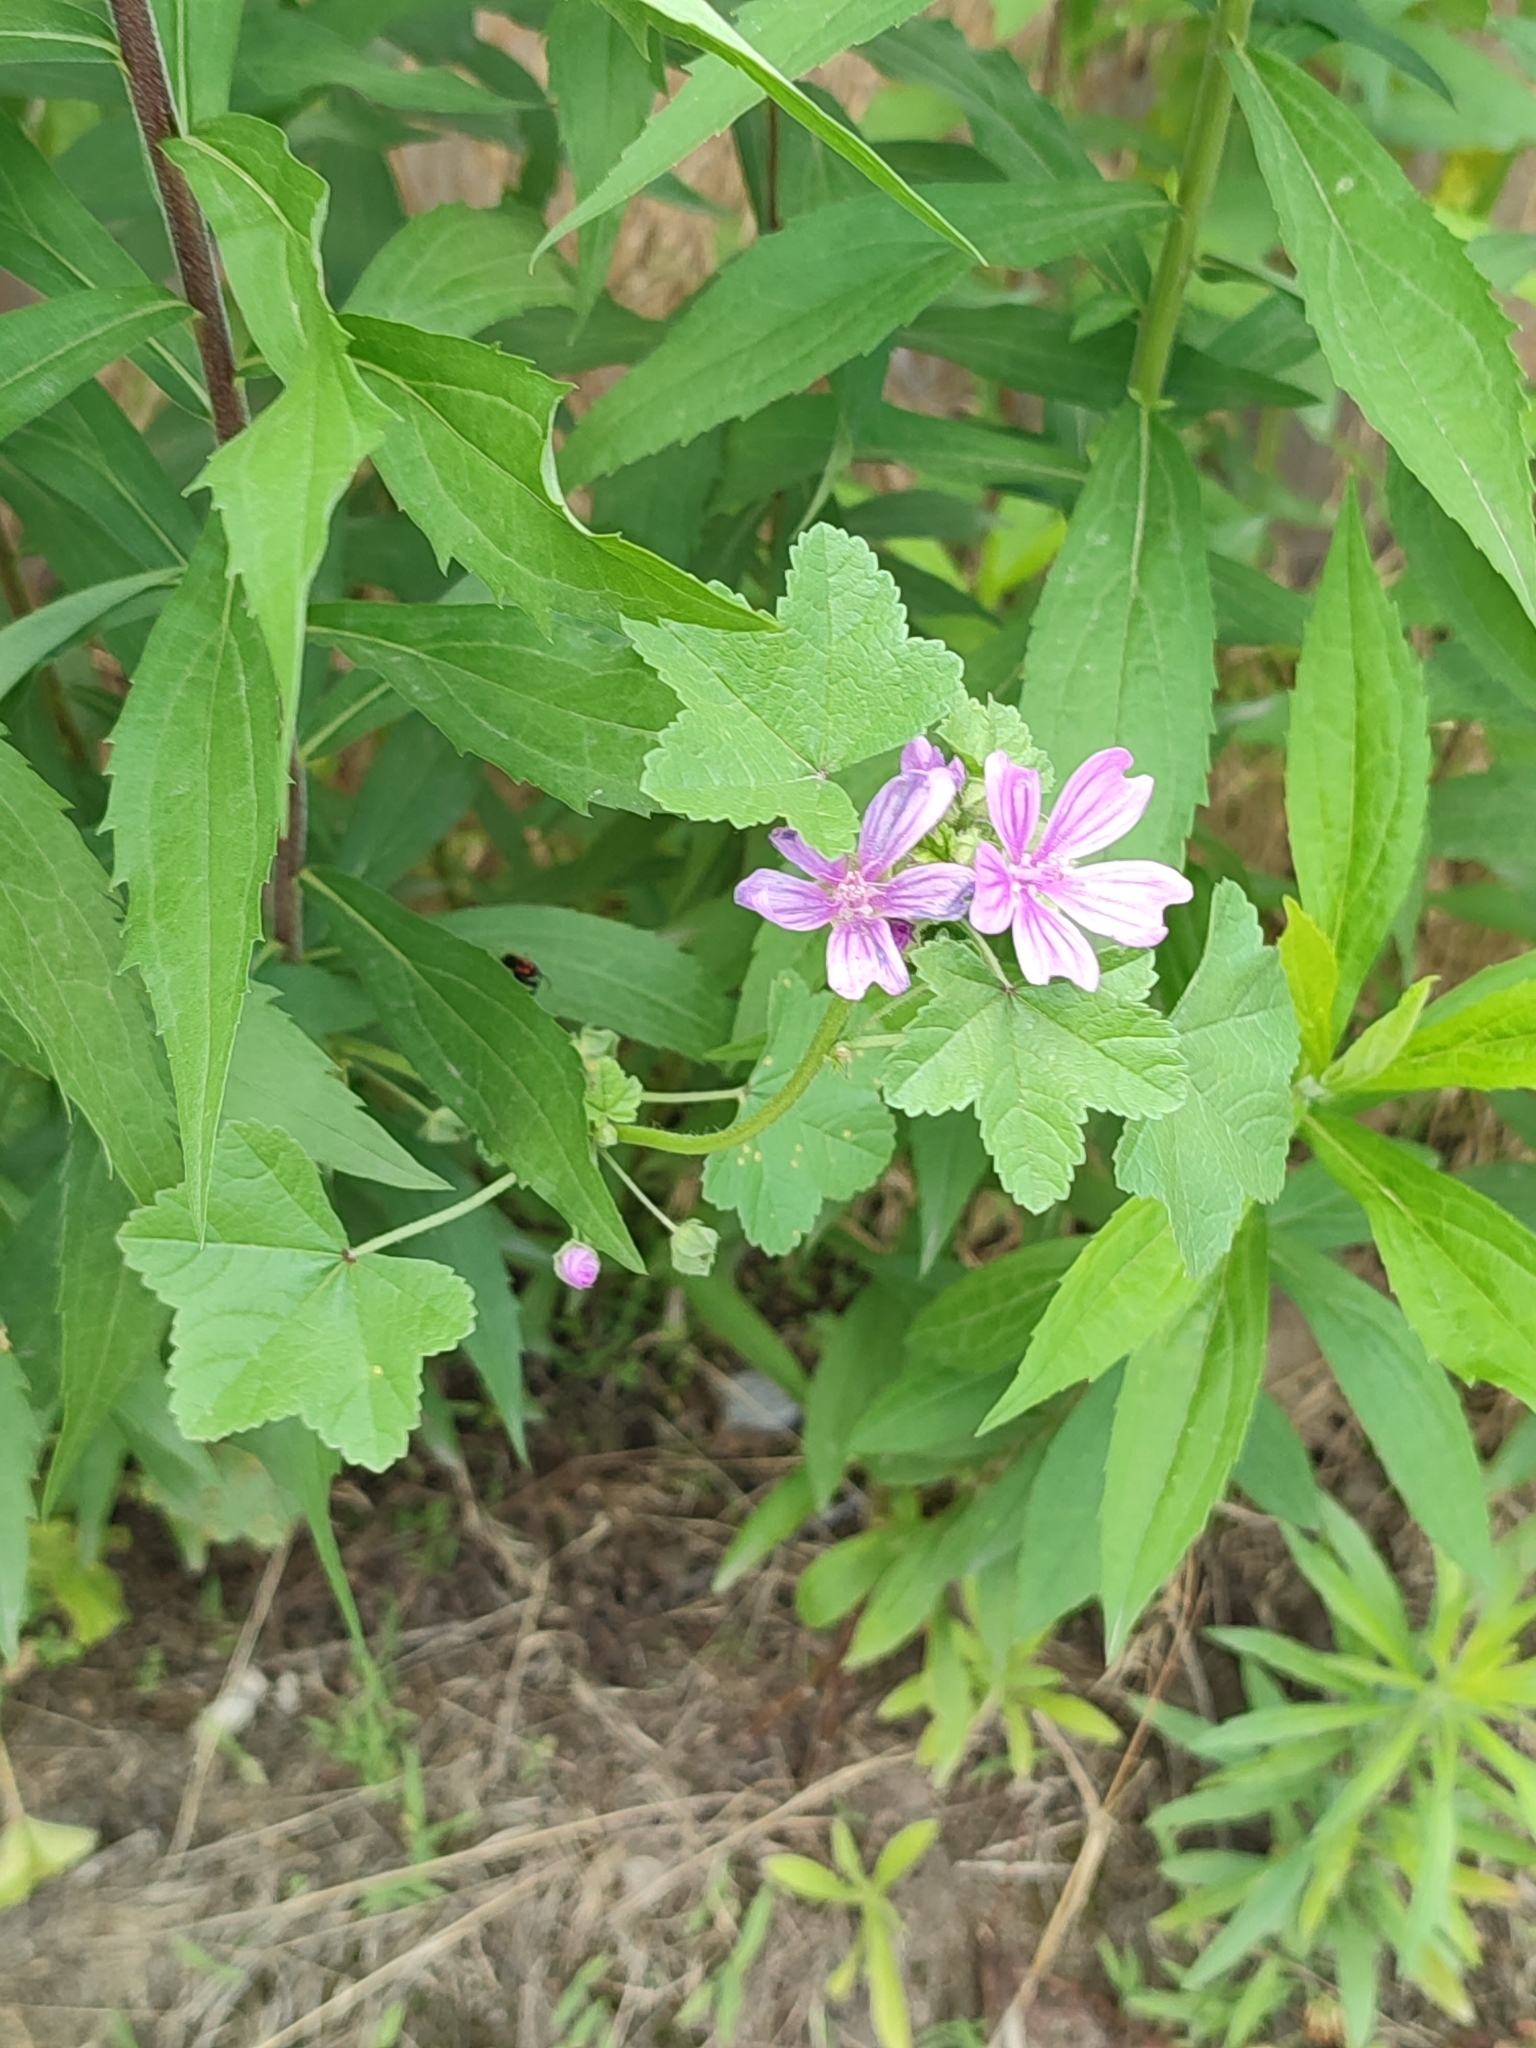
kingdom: Plantae
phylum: Tracheophyta
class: Magnoliopsida
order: Malvales
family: Malvaceae
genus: Malva
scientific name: Malva sylvestris
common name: Common mallow
